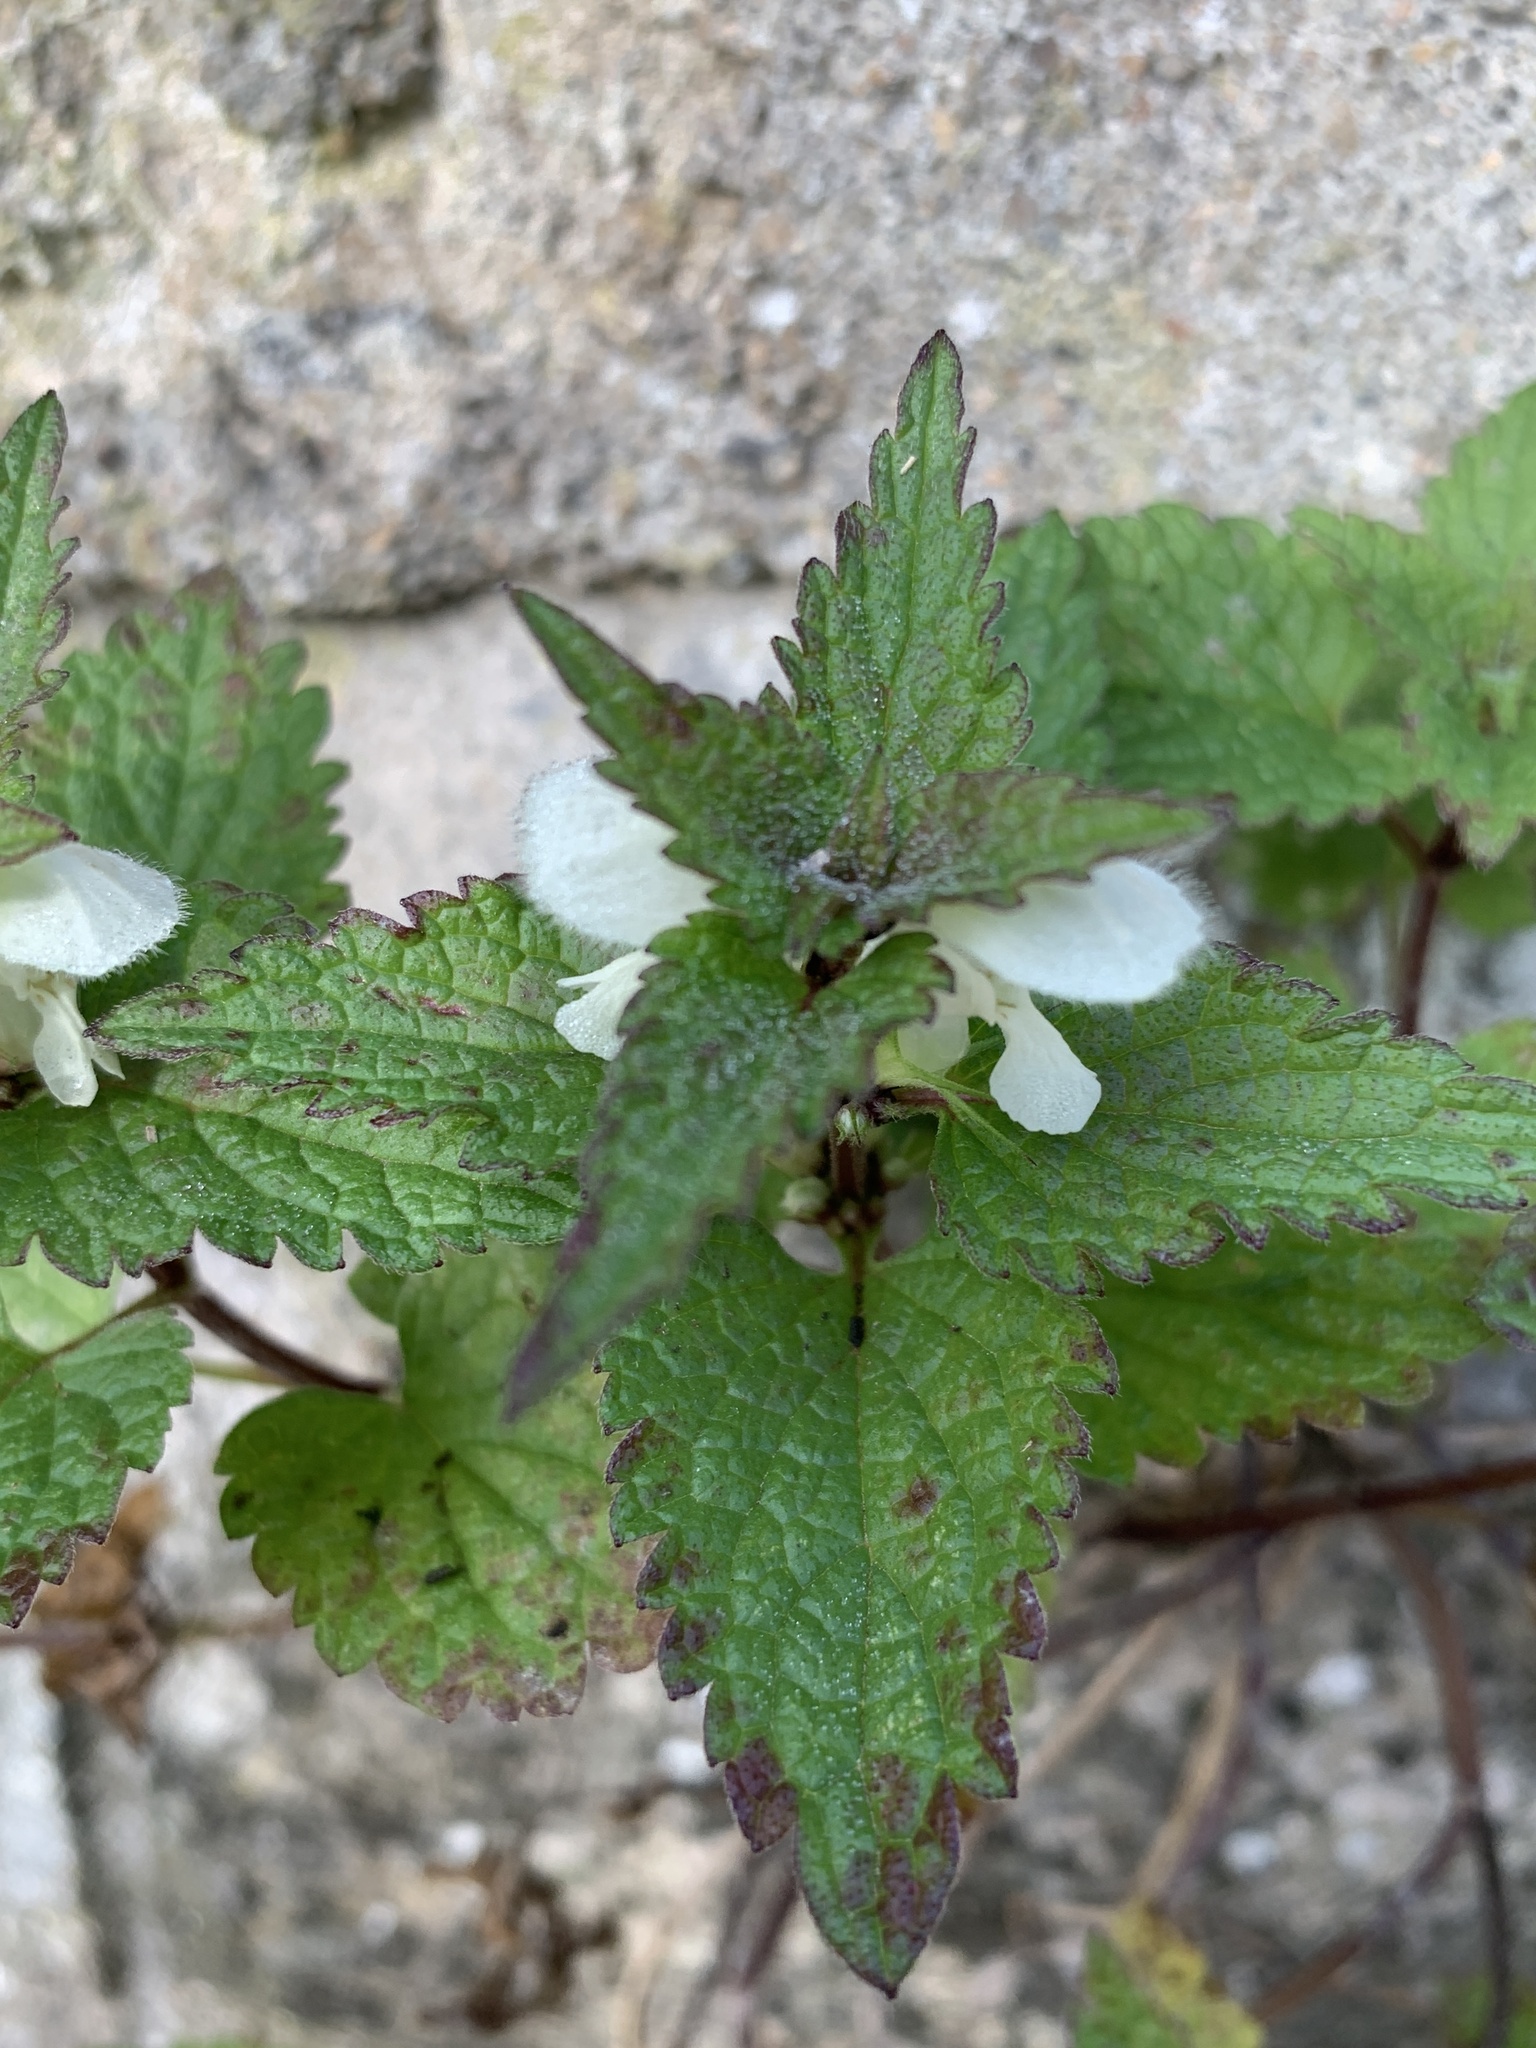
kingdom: Plantae
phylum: Tracheophyta
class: Magnoliopsida
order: Lamiales
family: Lamiaceae
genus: Lamium
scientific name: Lamium album
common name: White dead-nettle
